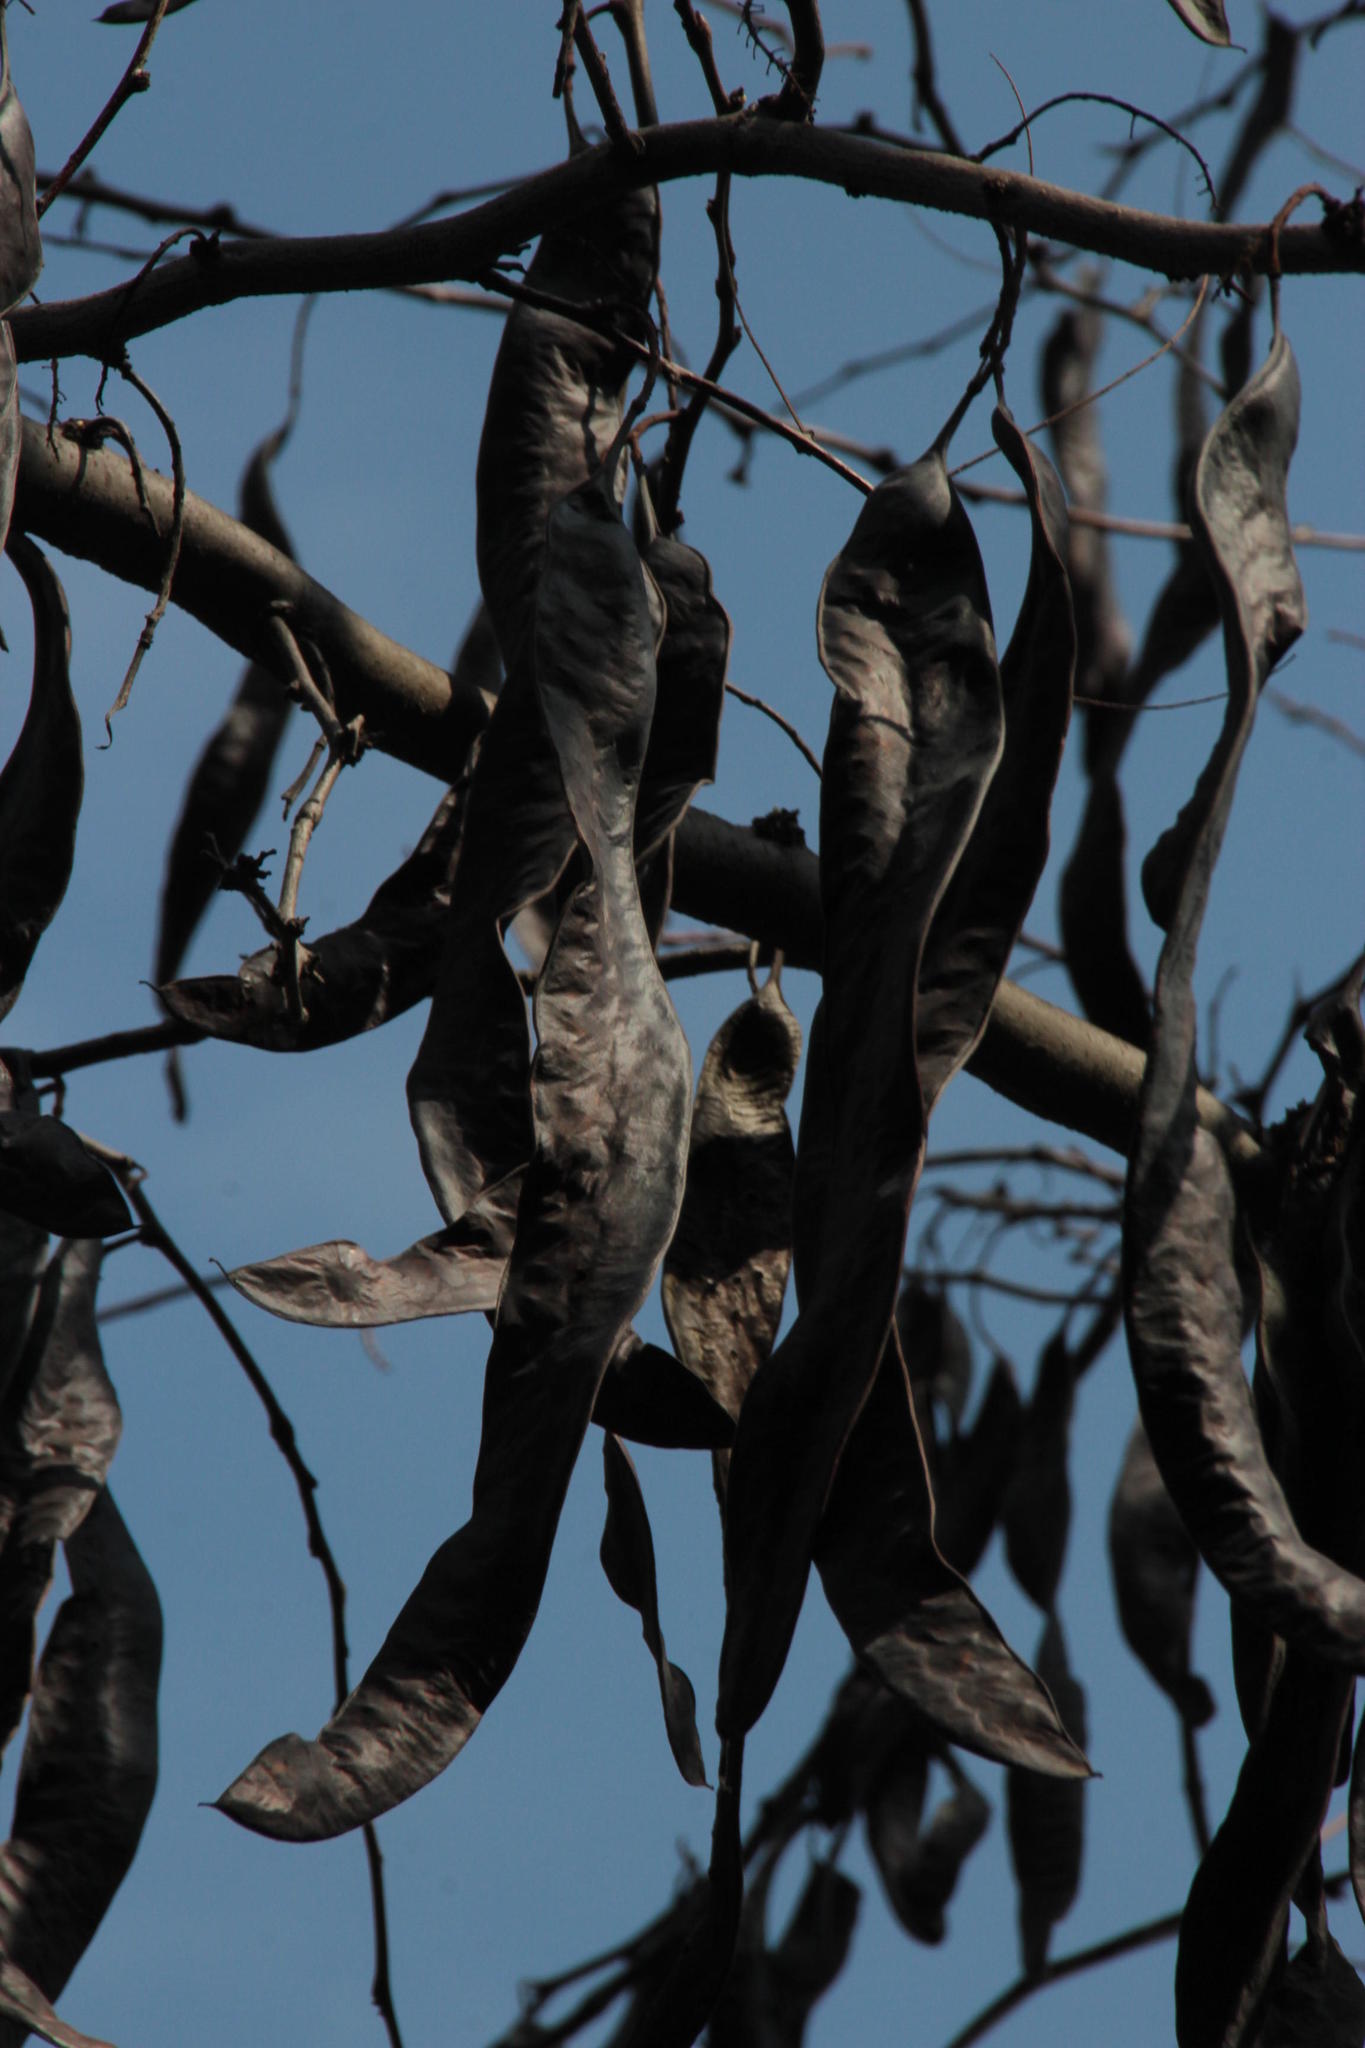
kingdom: Plantae
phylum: Tracheophyta
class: Magnoliopsida
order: Fabales
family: Fabaceae
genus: Gleditsia
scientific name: Gleditsia triacanthos
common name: Common honeylocust
